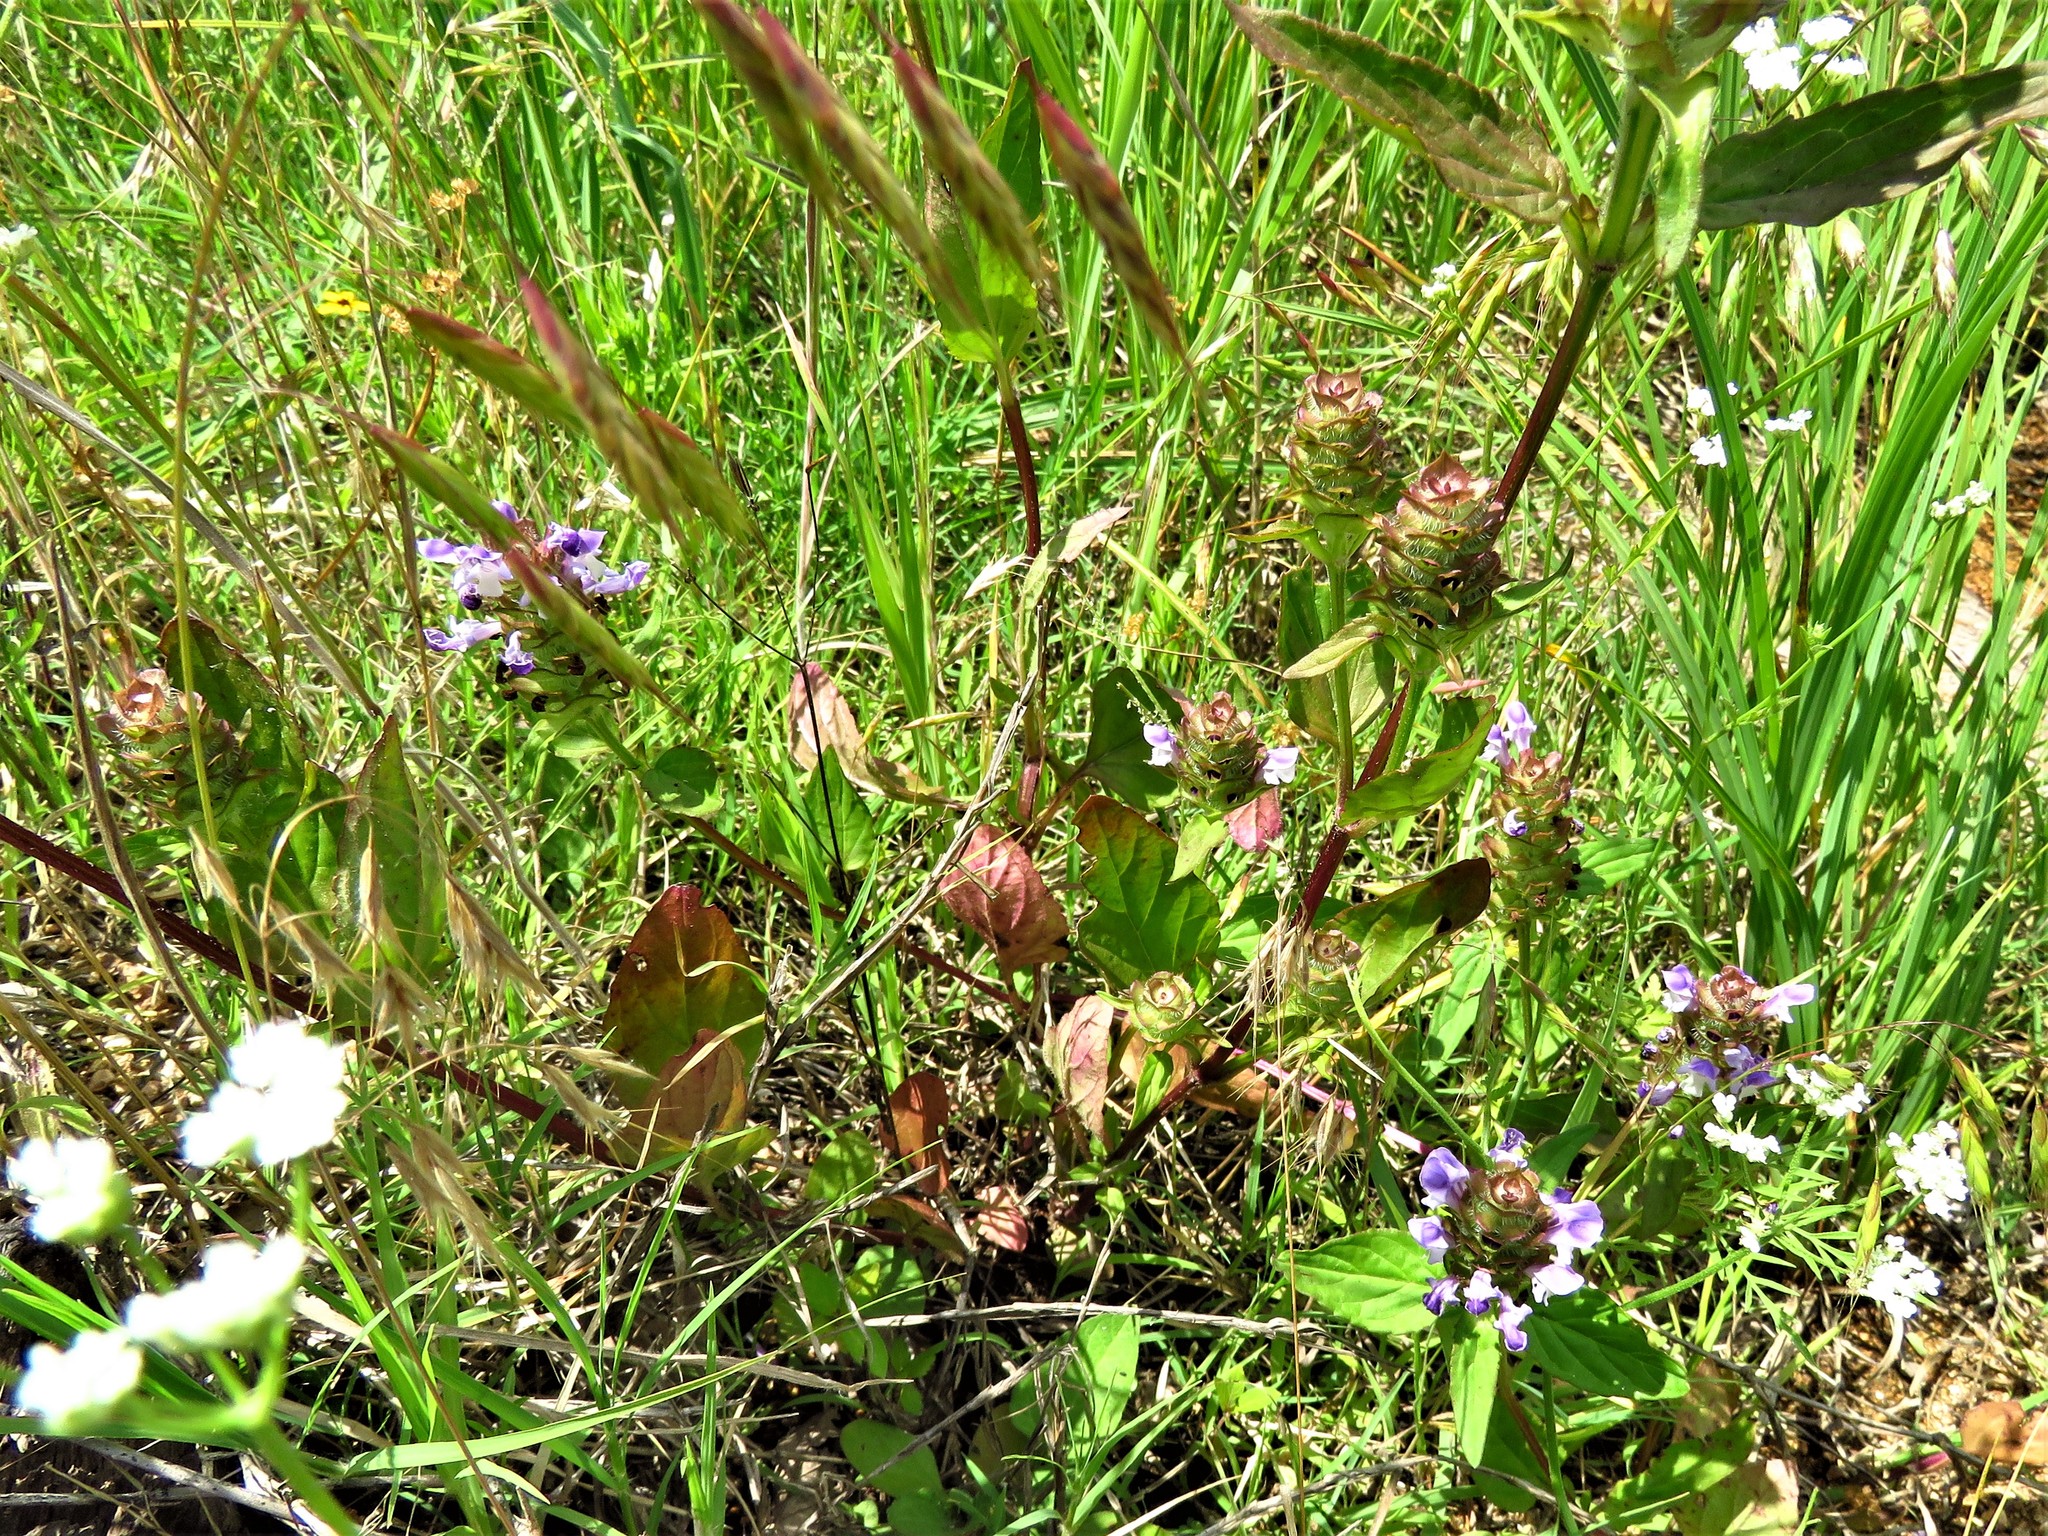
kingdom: Plantae
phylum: Tracheophyta
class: Magnoliopsida
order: Lamiales
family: Lamiaceae
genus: Prunella
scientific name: Prunella vulgaris
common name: Heal-all
